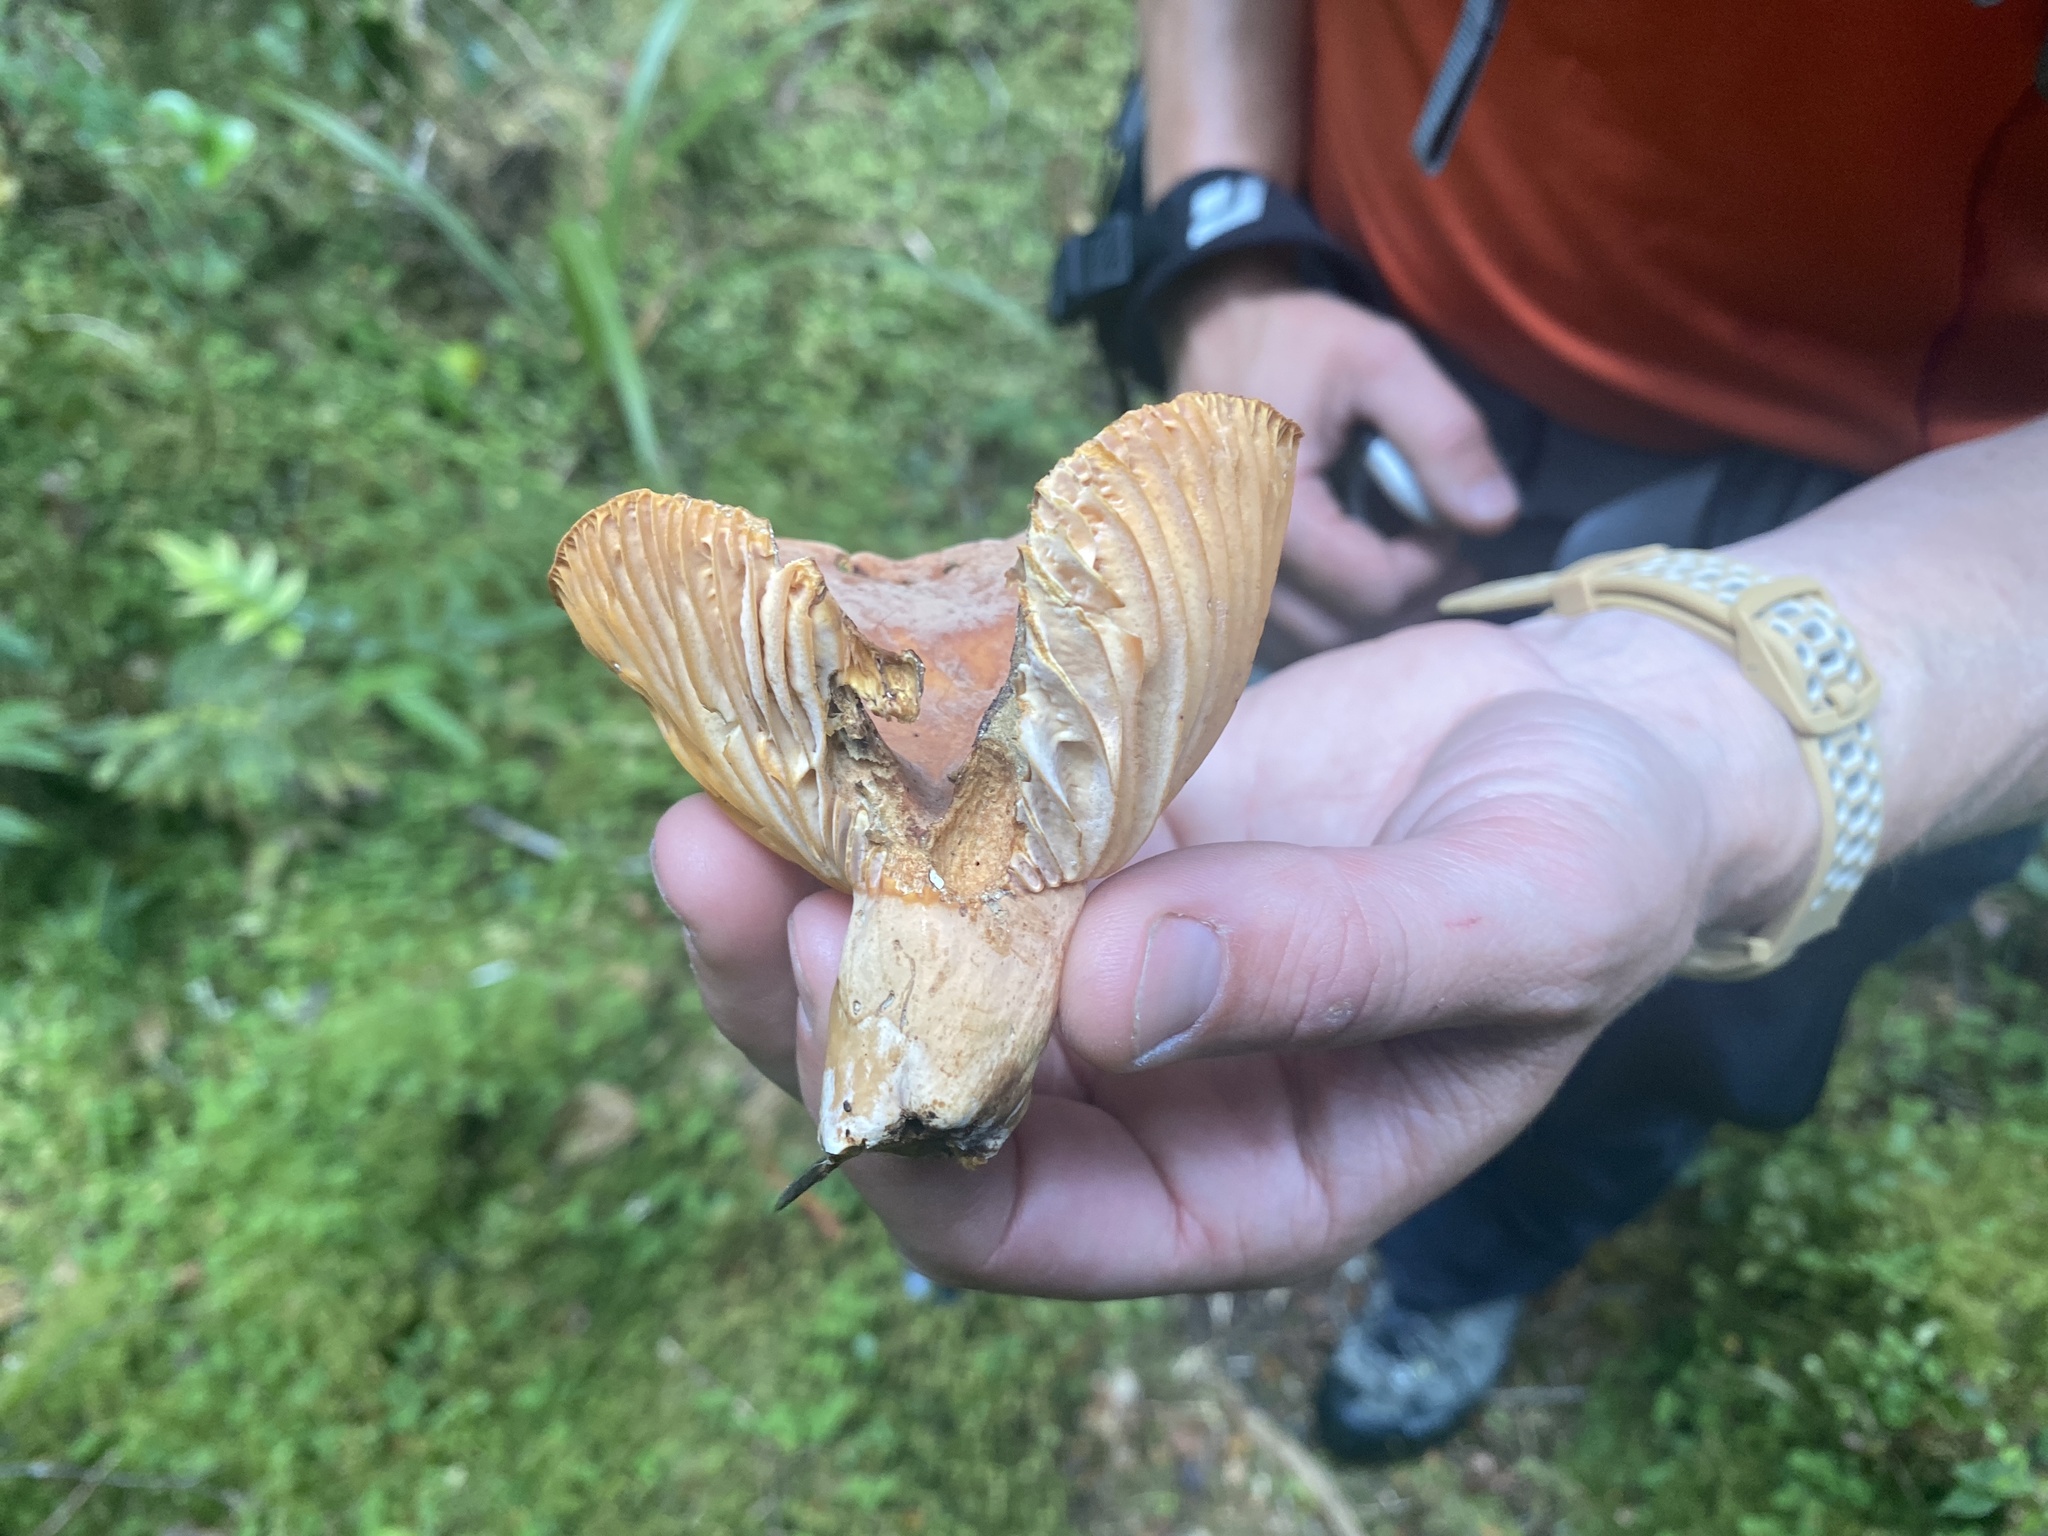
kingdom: Fungi
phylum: Basidiomycota
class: Agaricomycetes
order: Russulales
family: Russulaceae
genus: Lactifluus
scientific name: Lactifluus aurantioruber
